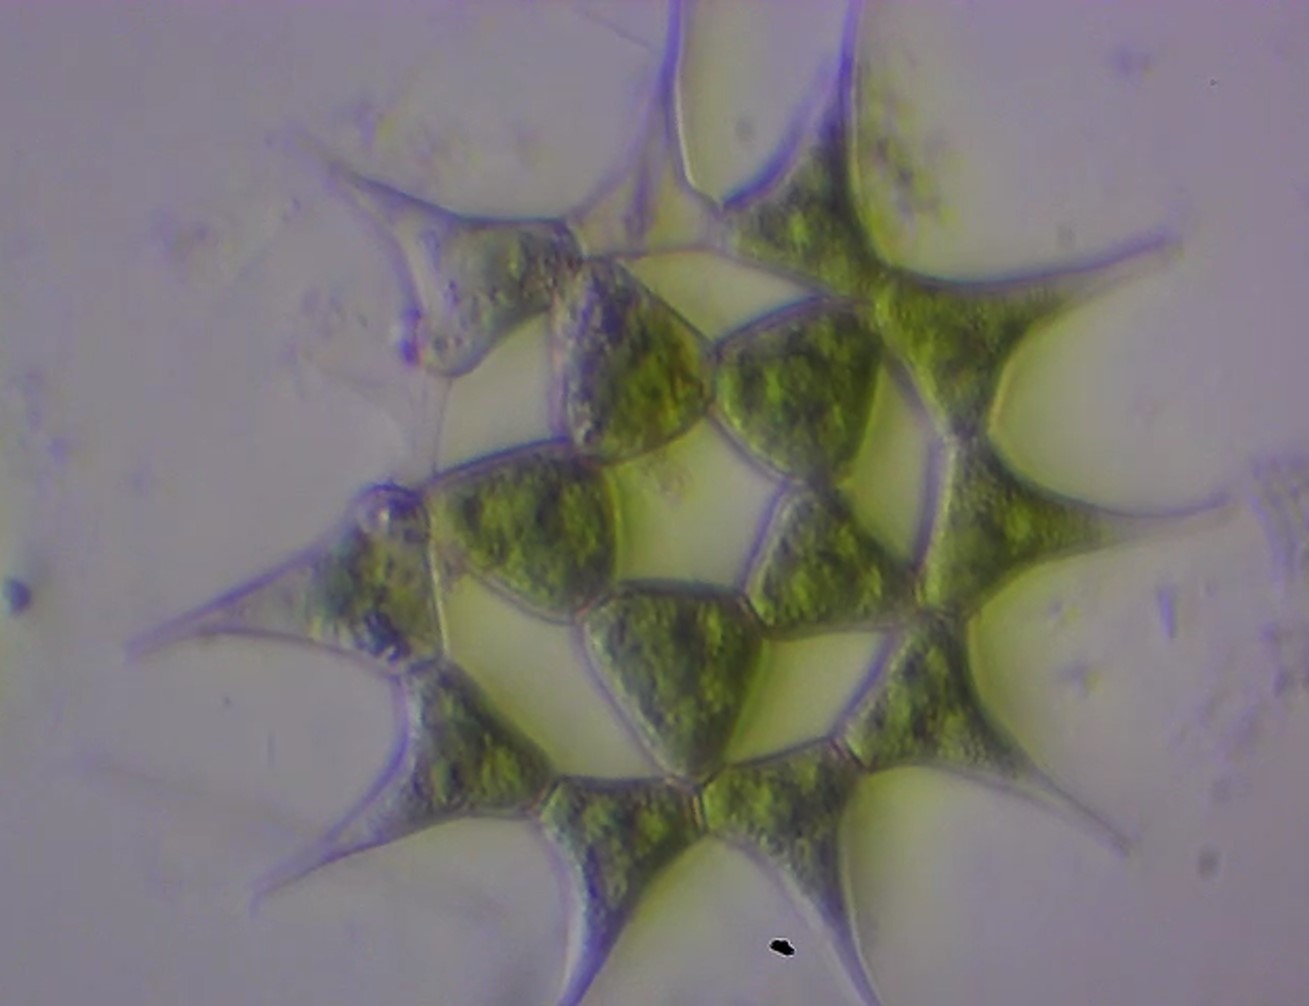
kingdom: Plantae
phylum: Chlorophyta
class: Chlorophyceae
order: Sphaeropleales
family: Hydrodictyaceae
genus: Monactinus
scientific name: Monactinus simplex
